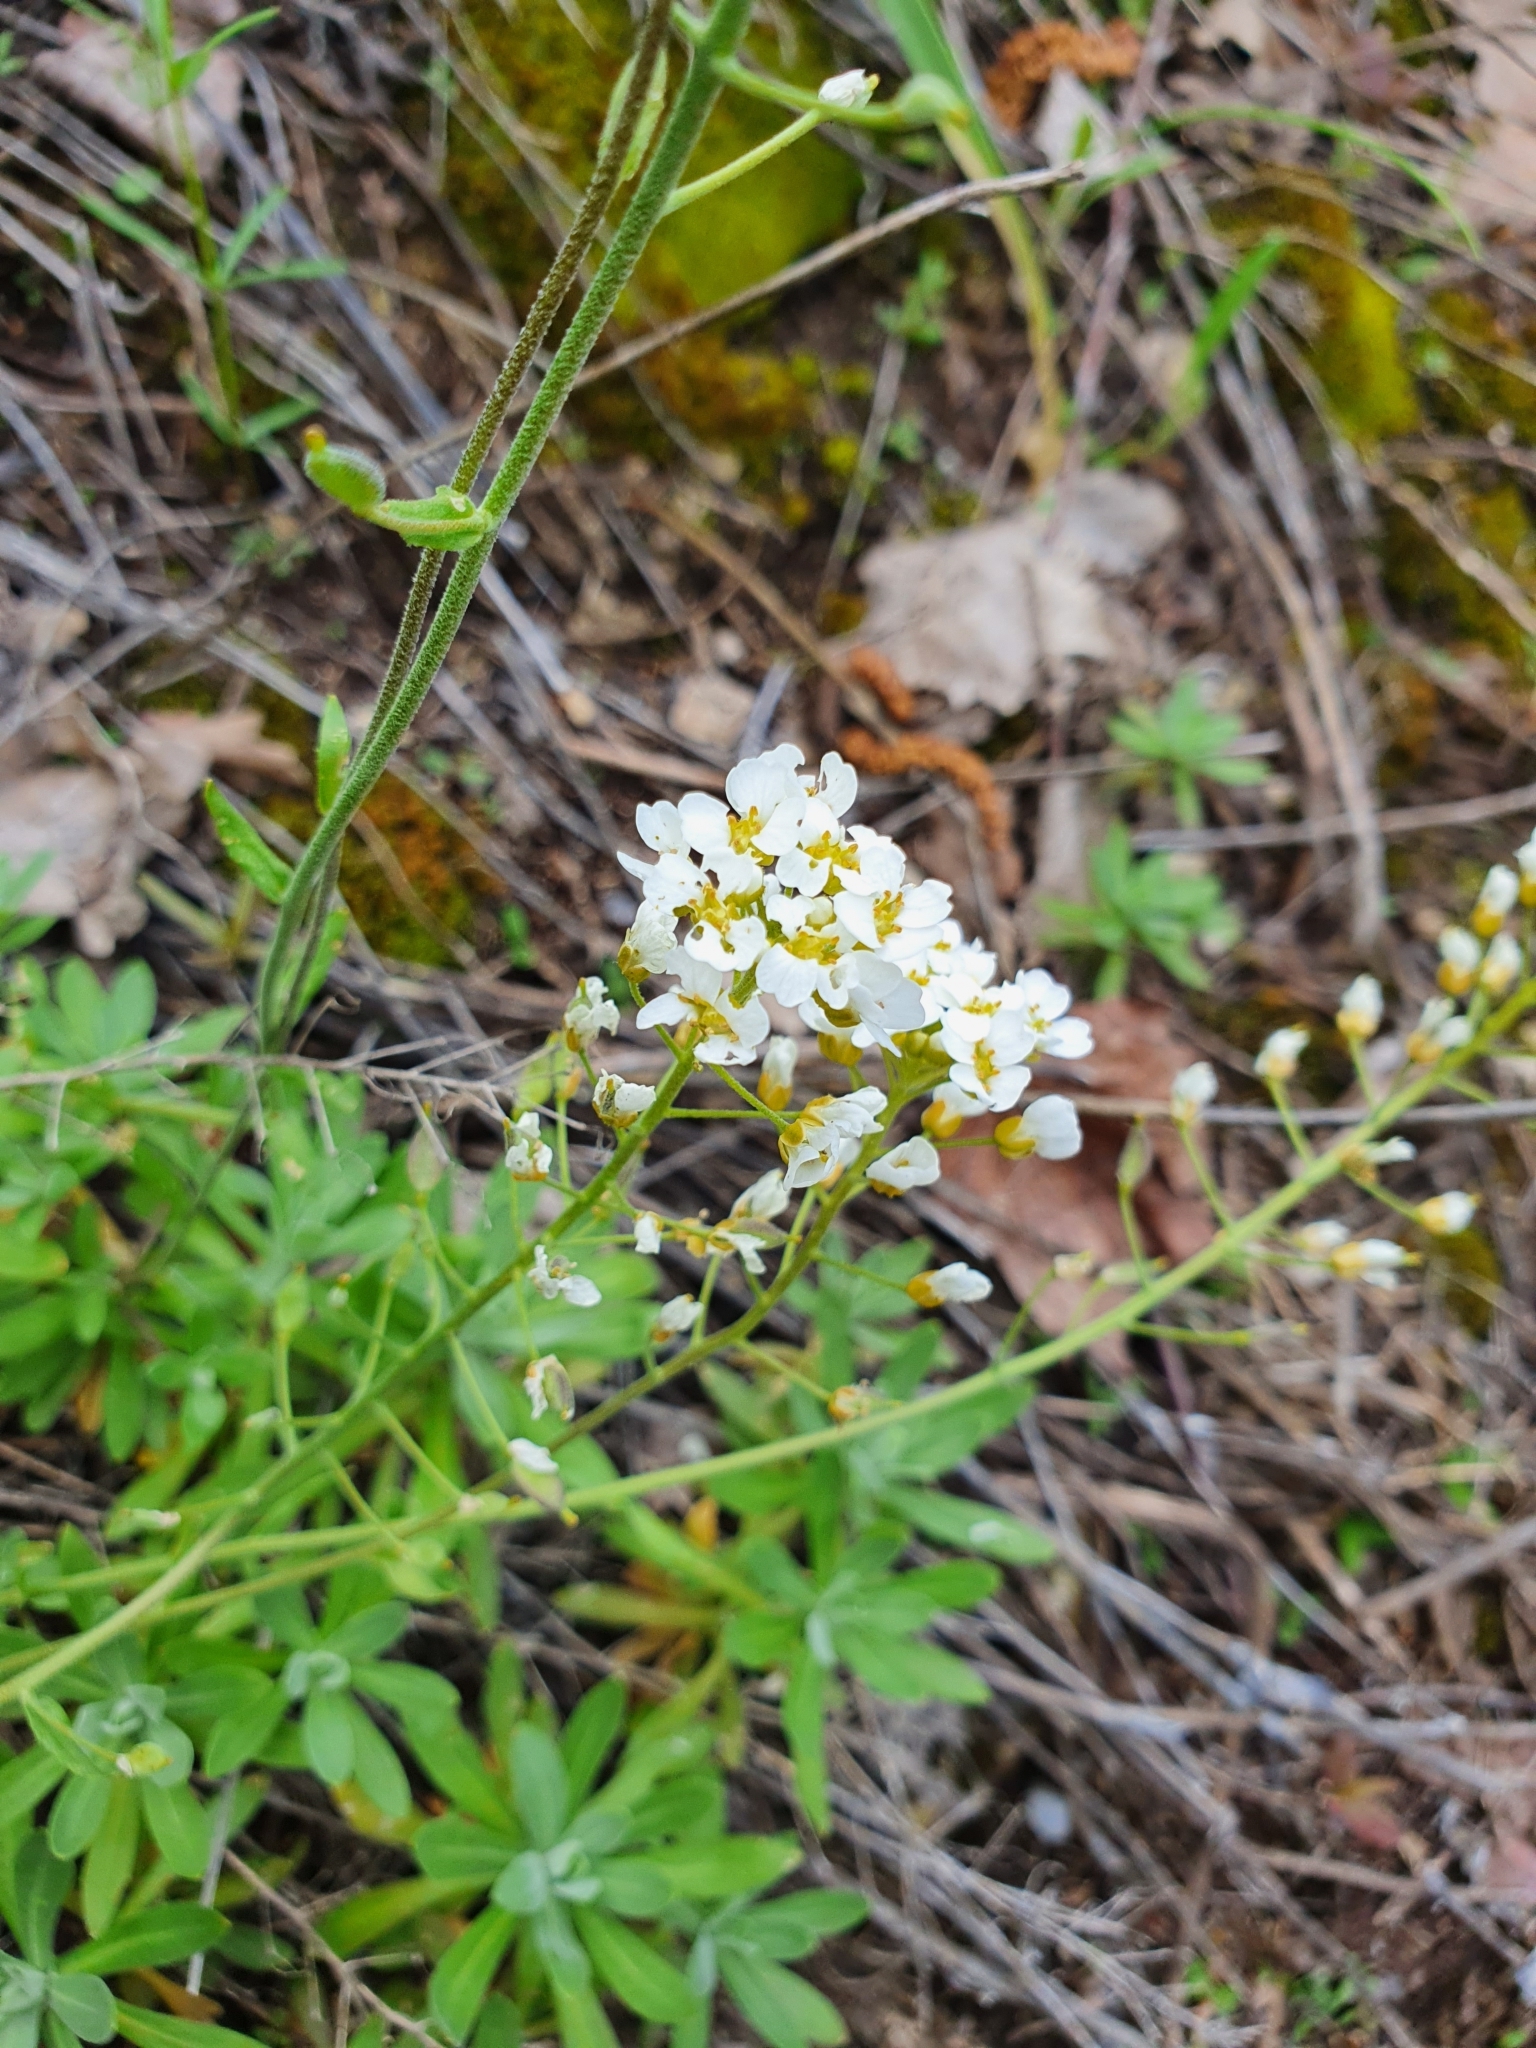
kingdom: Plantae
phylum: Tracheophyta
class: Magnoliopsida
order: Brassicales
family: Brassicaceae
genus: Draba
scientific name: Draba hyperborea
